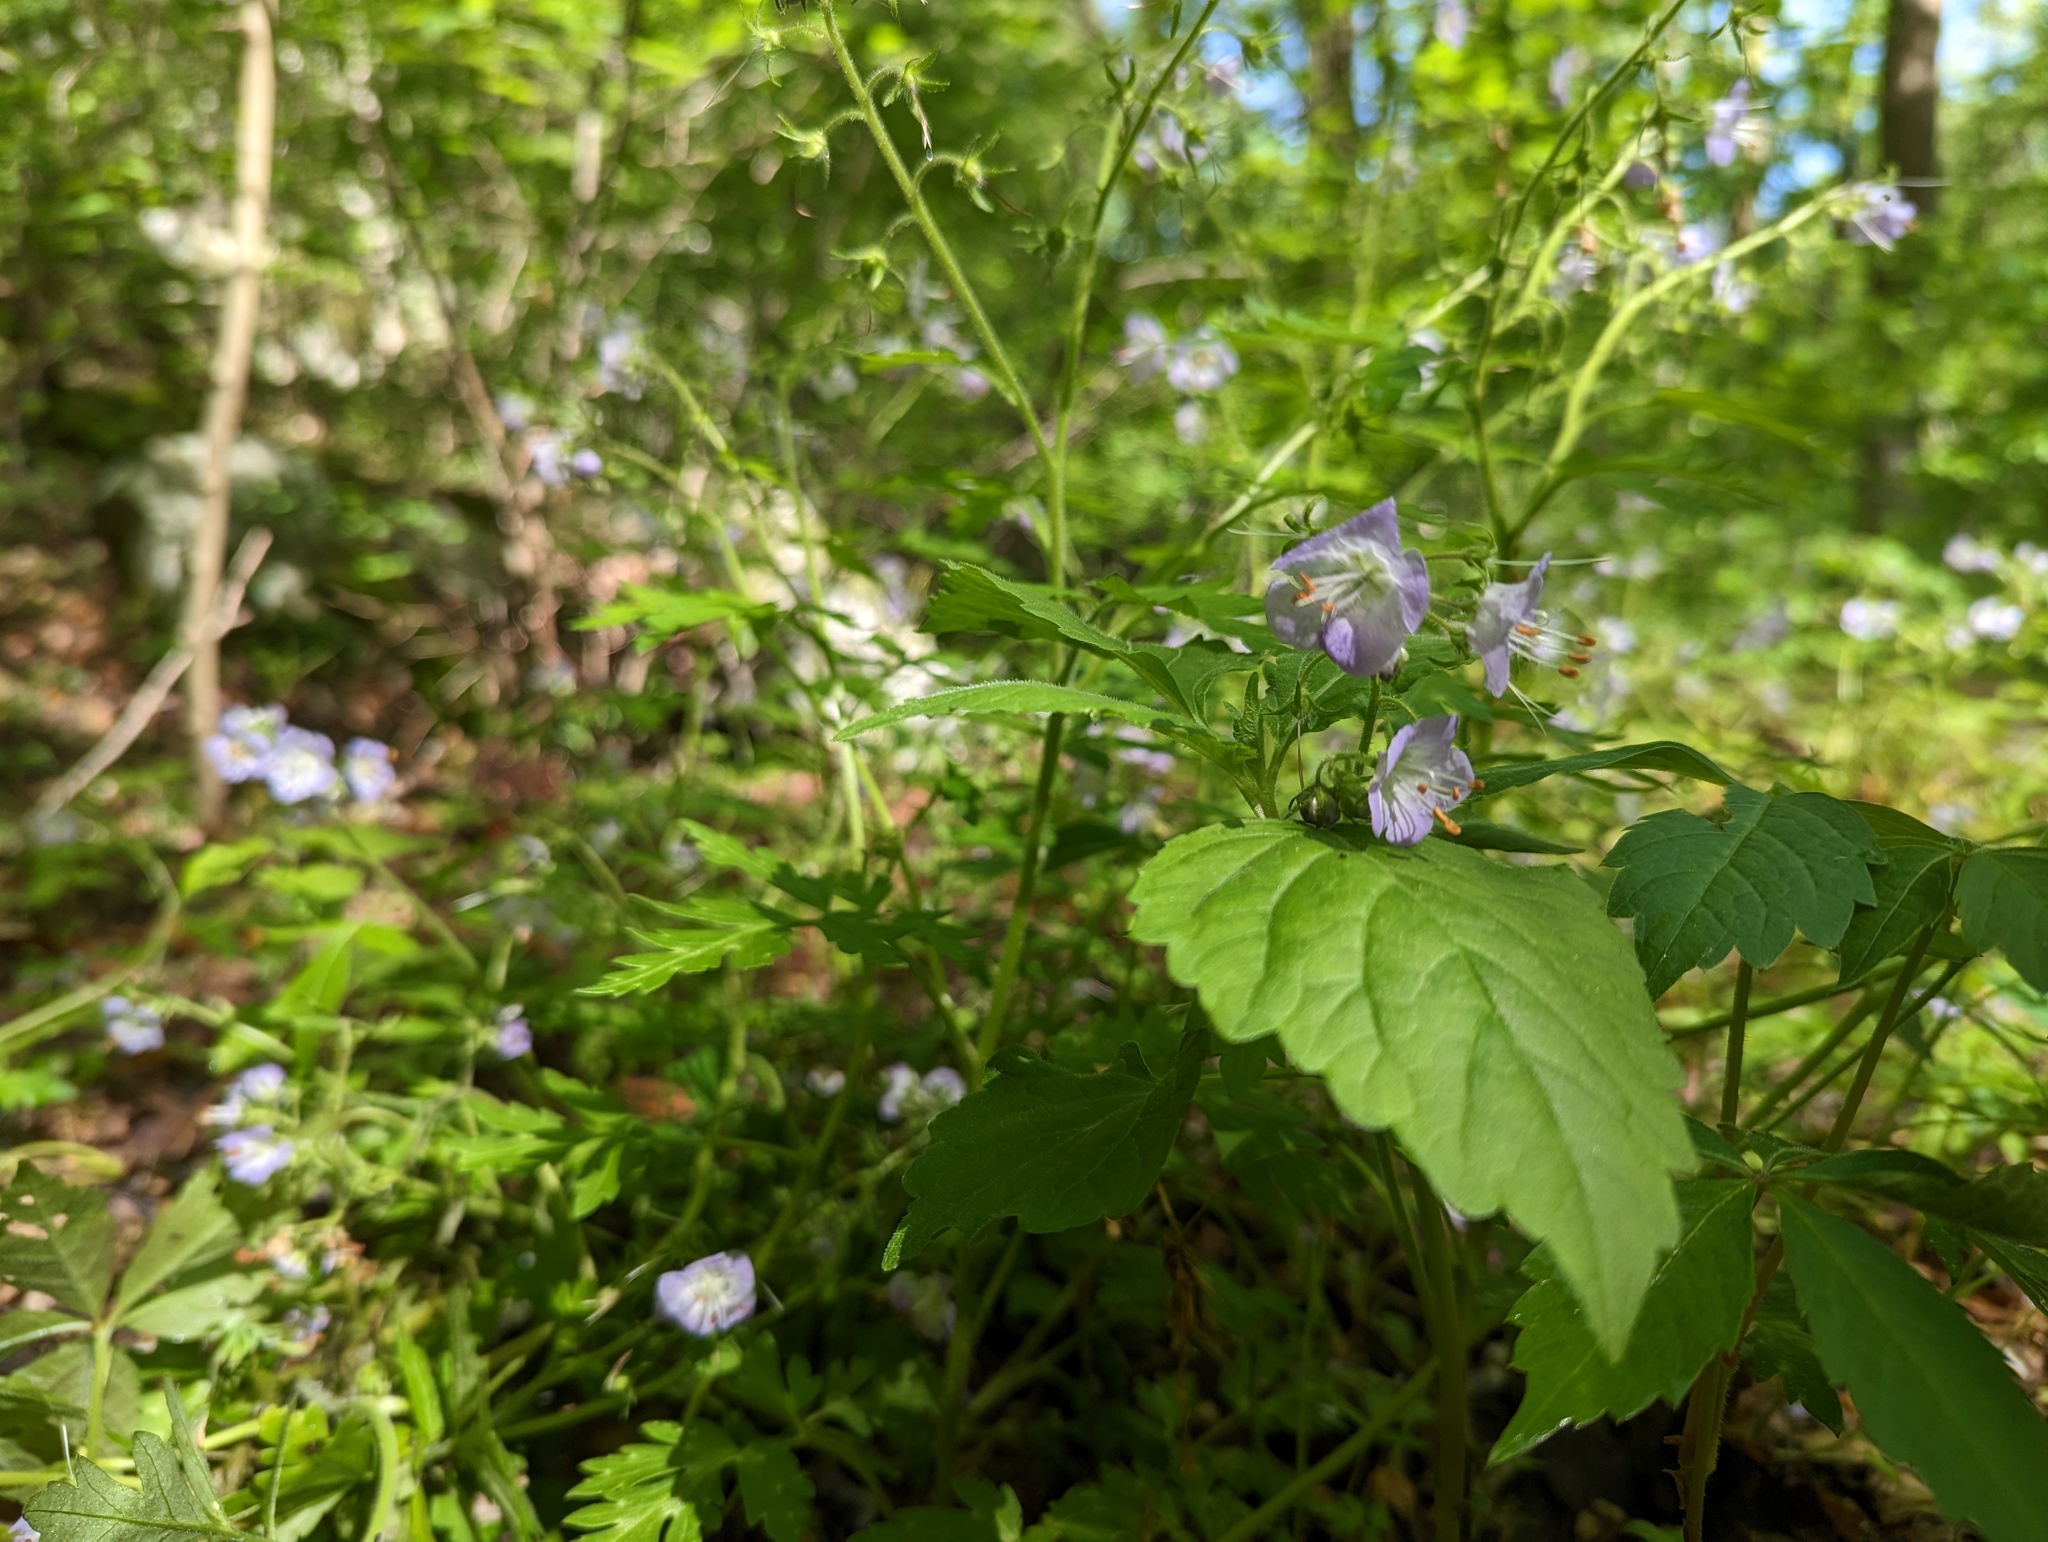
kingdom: Plantae
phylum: Tracheophyta
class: Magnoliopsida
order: Boraginales
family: Hydrophyllaceae
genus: Phacelia
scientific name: Phacelia bipinnatifida
